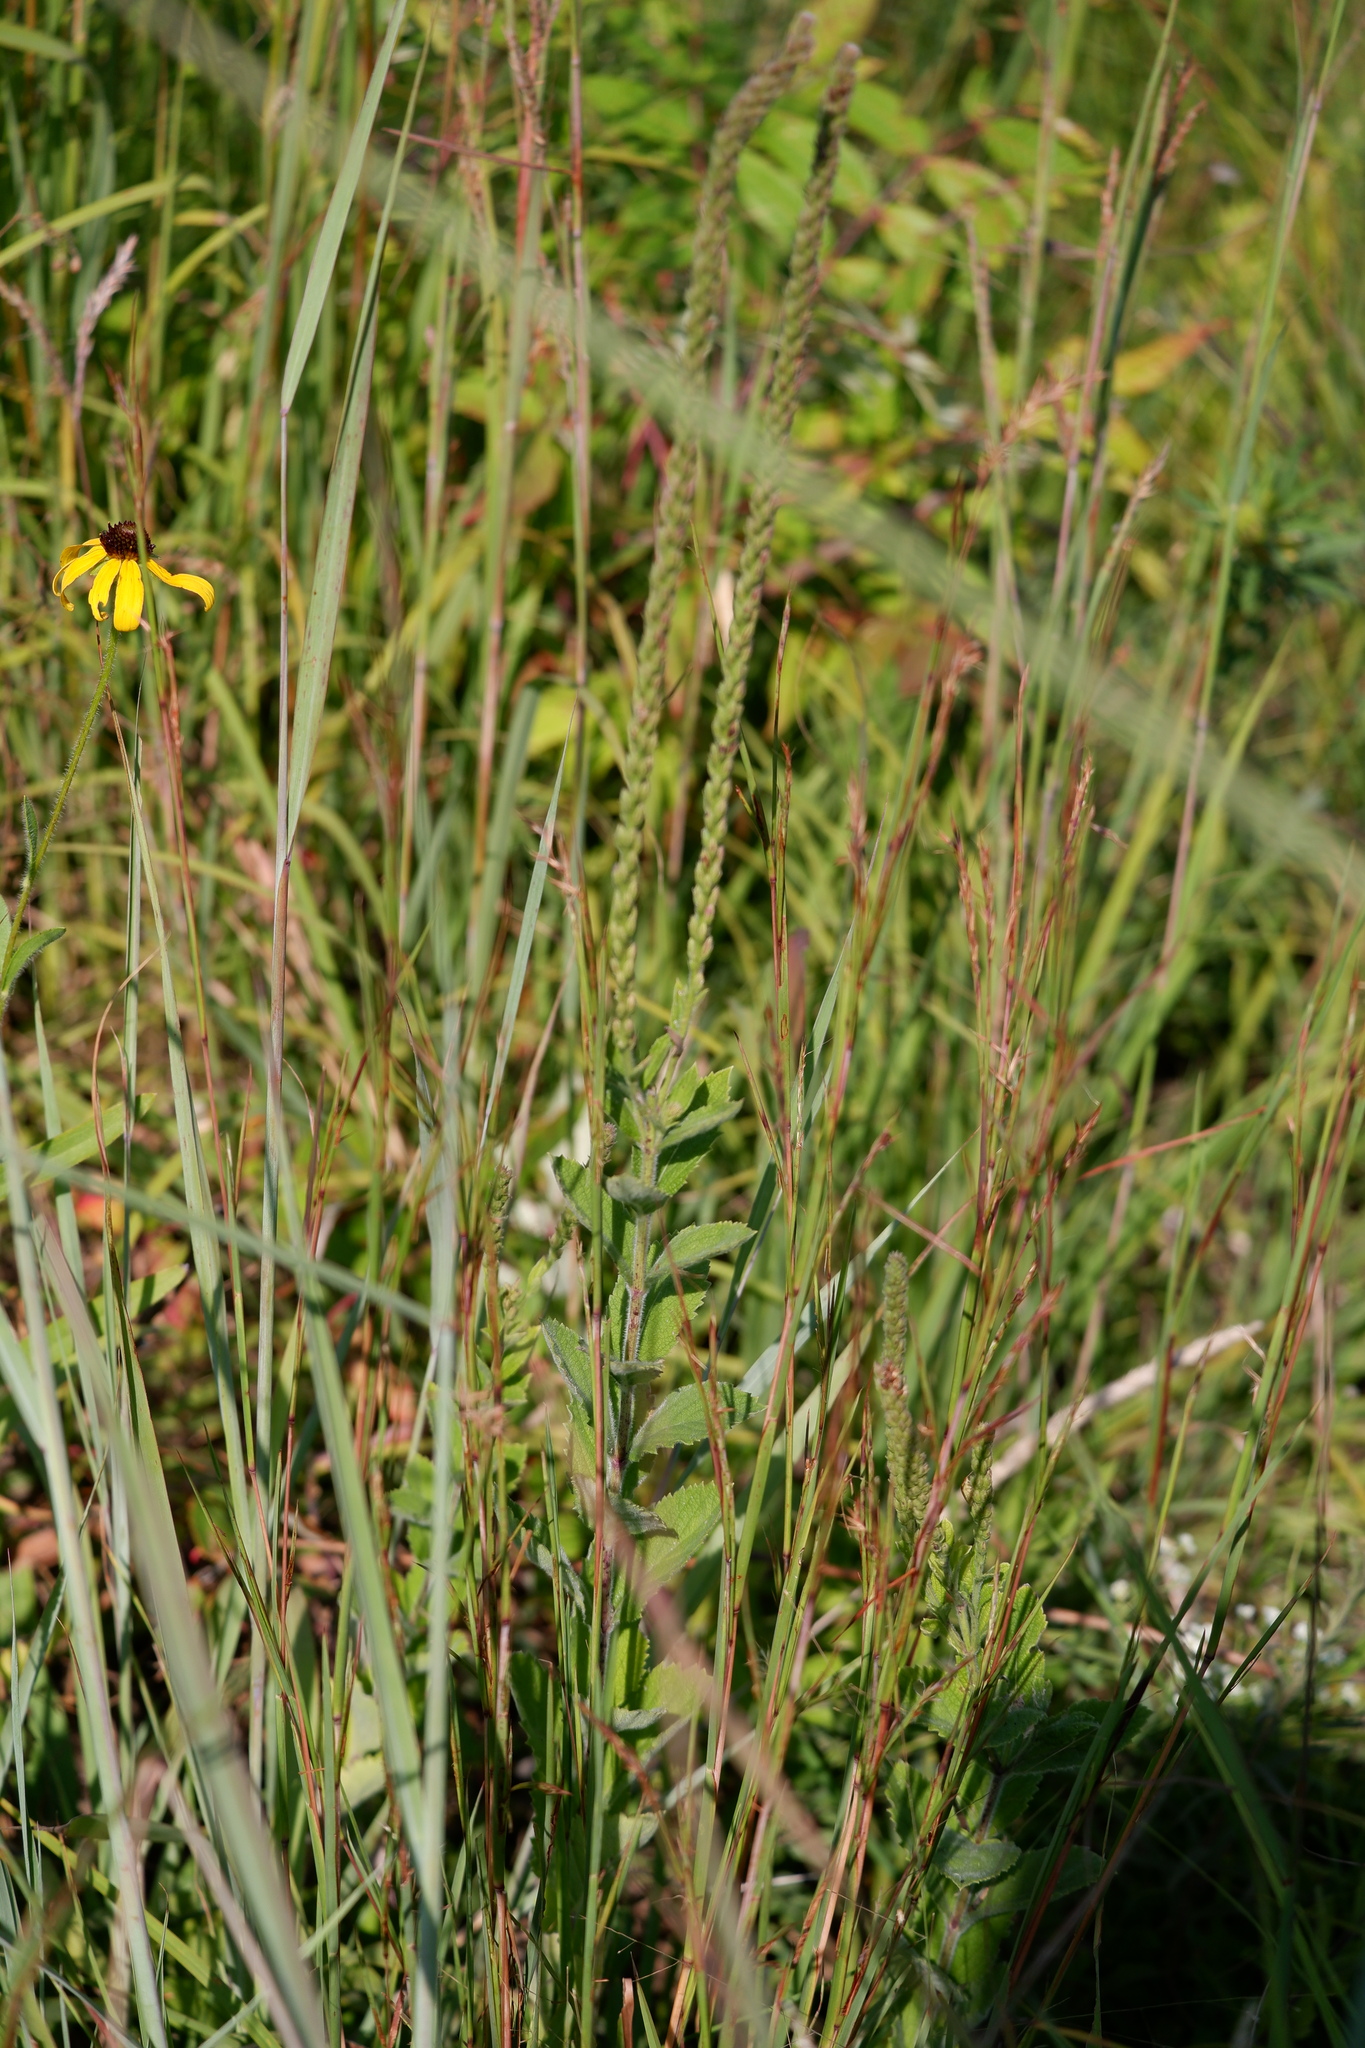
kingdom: Plantae
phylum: Tracheophyta
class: Magnoliopsida
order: Lamiales
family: Verbenaceae
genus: Verbena
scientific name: Verbena stricta
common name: Hoary vervain
